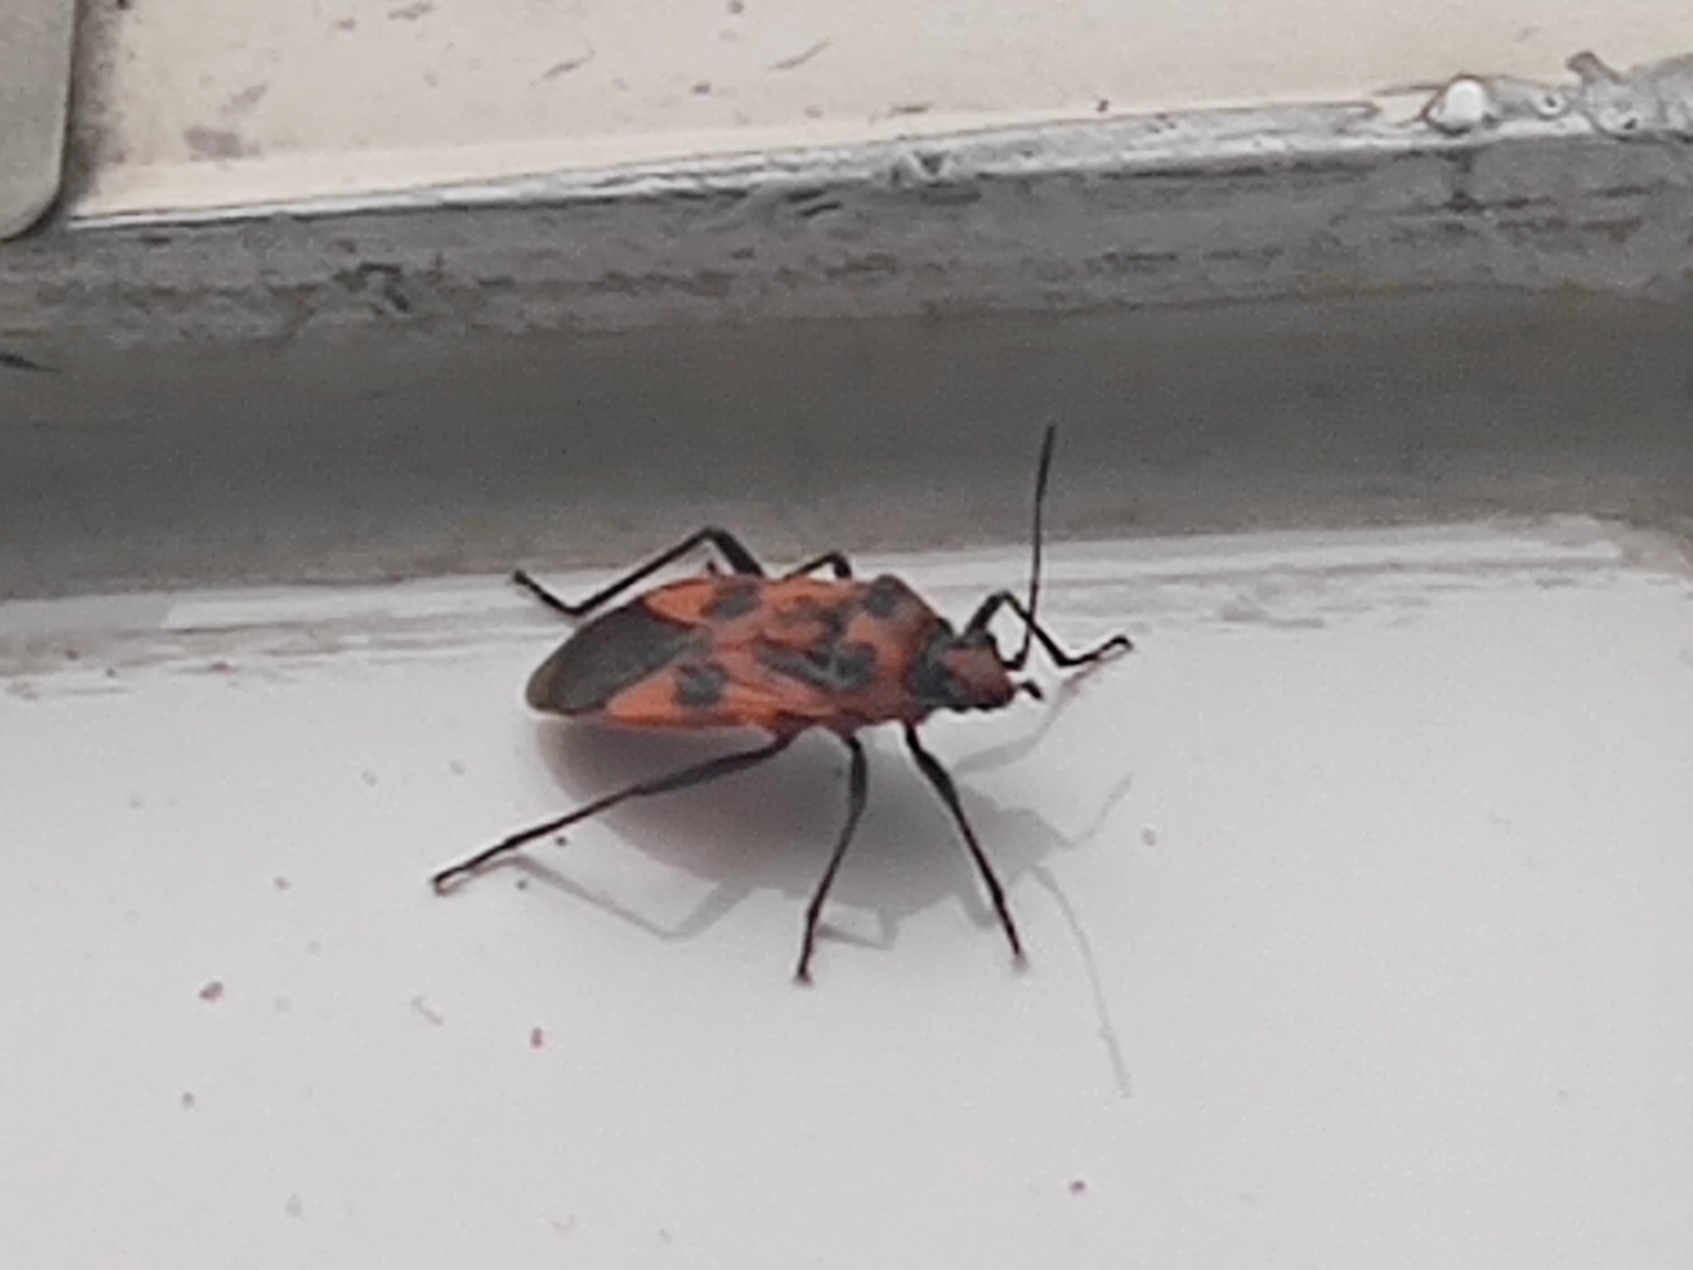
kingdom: Animalia
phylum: Arthropoda
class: Insecta
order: Hemiptera
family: Rhopalidae
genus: Corizus
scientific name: Corizus hyoscyami
